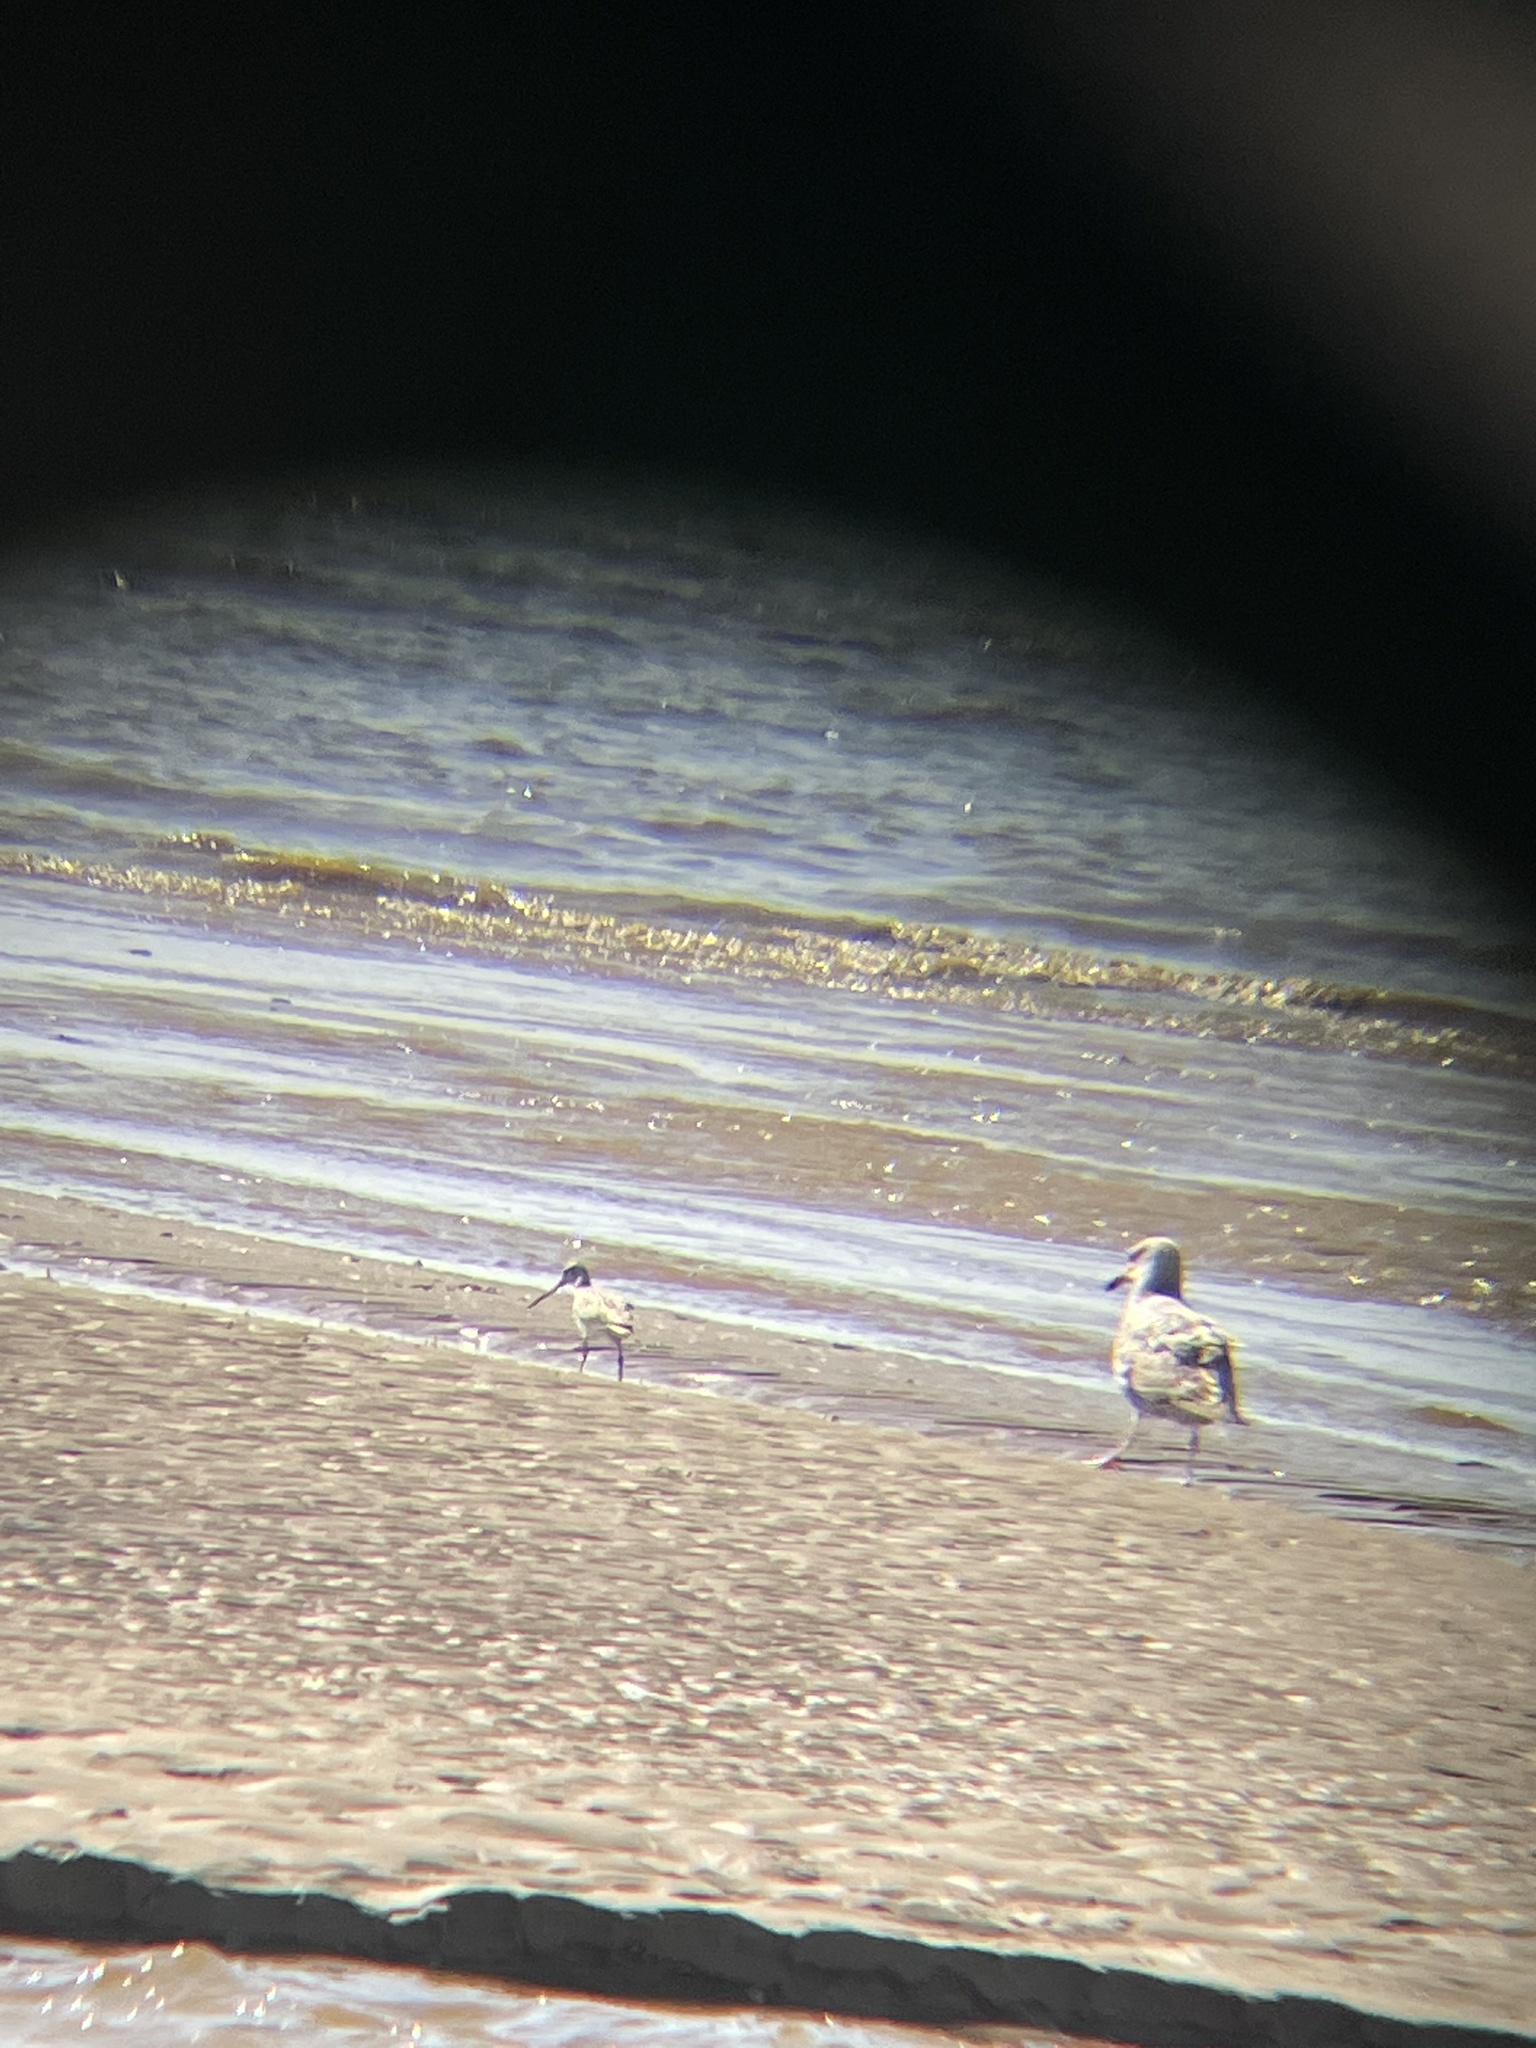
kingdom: Animalia
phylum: Chordata
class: Aves
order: Charadriiformes
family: Scolopacidae
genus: Limosa
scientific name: Limosa lapponica
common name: Bar-tailed godwit
